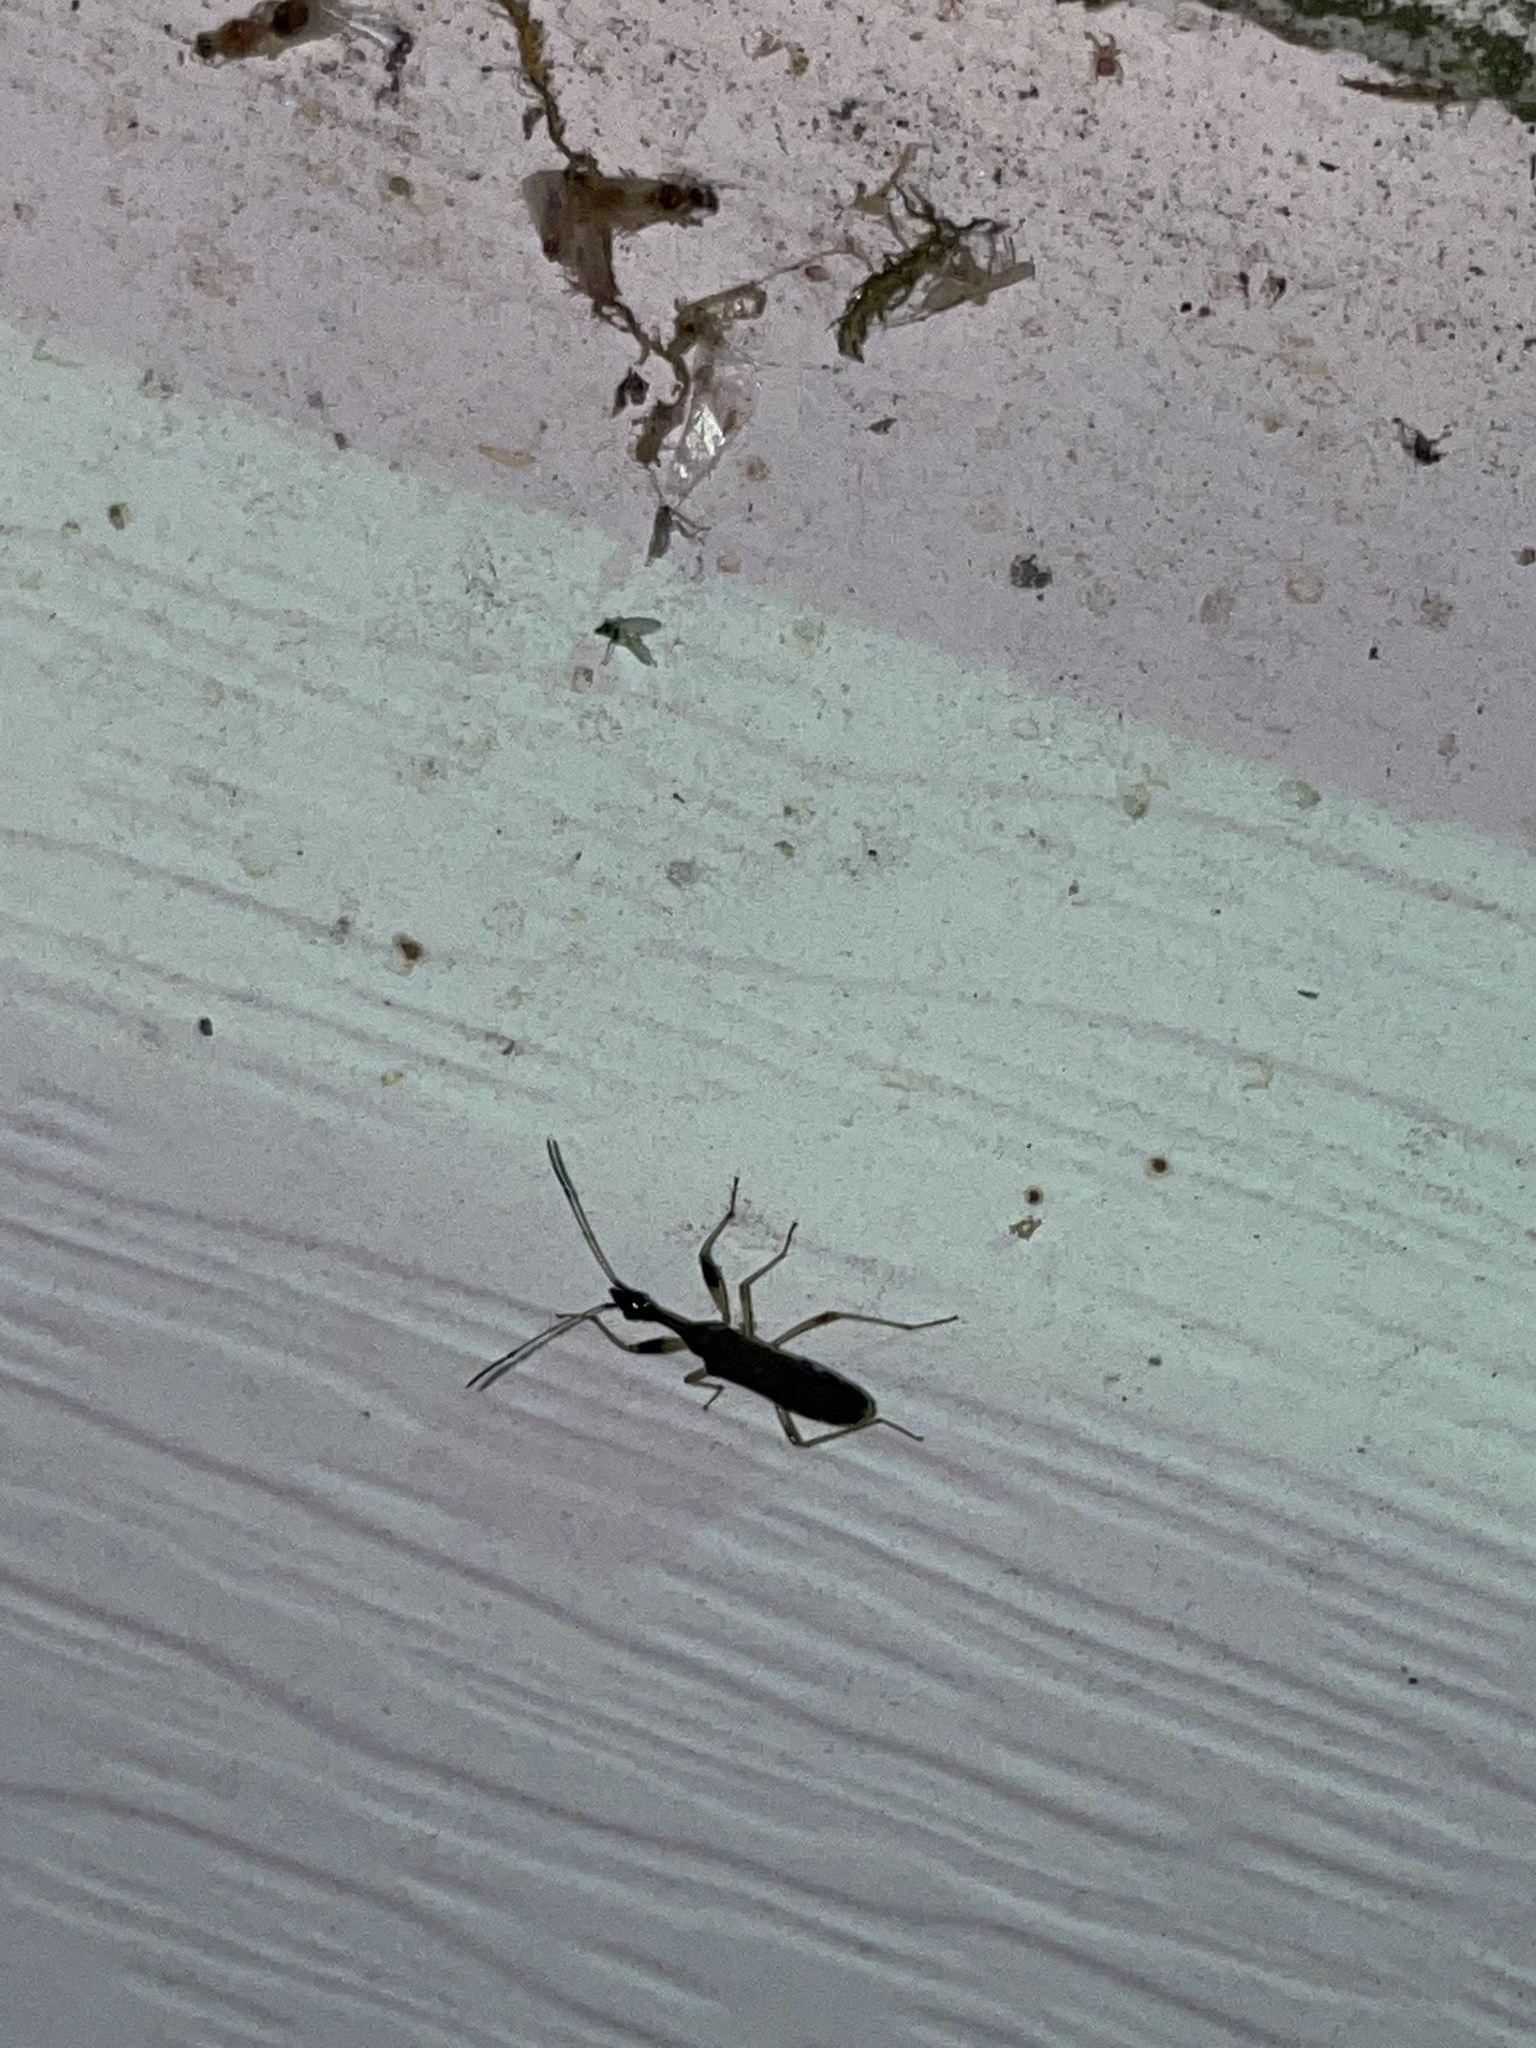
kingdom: Animalia
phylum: Arthropoda
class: Insecta
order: Hemiptera
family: Rhyparochromidae
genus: Myodocha
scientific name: Myodocha serripes
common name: Long-necked seed bug
